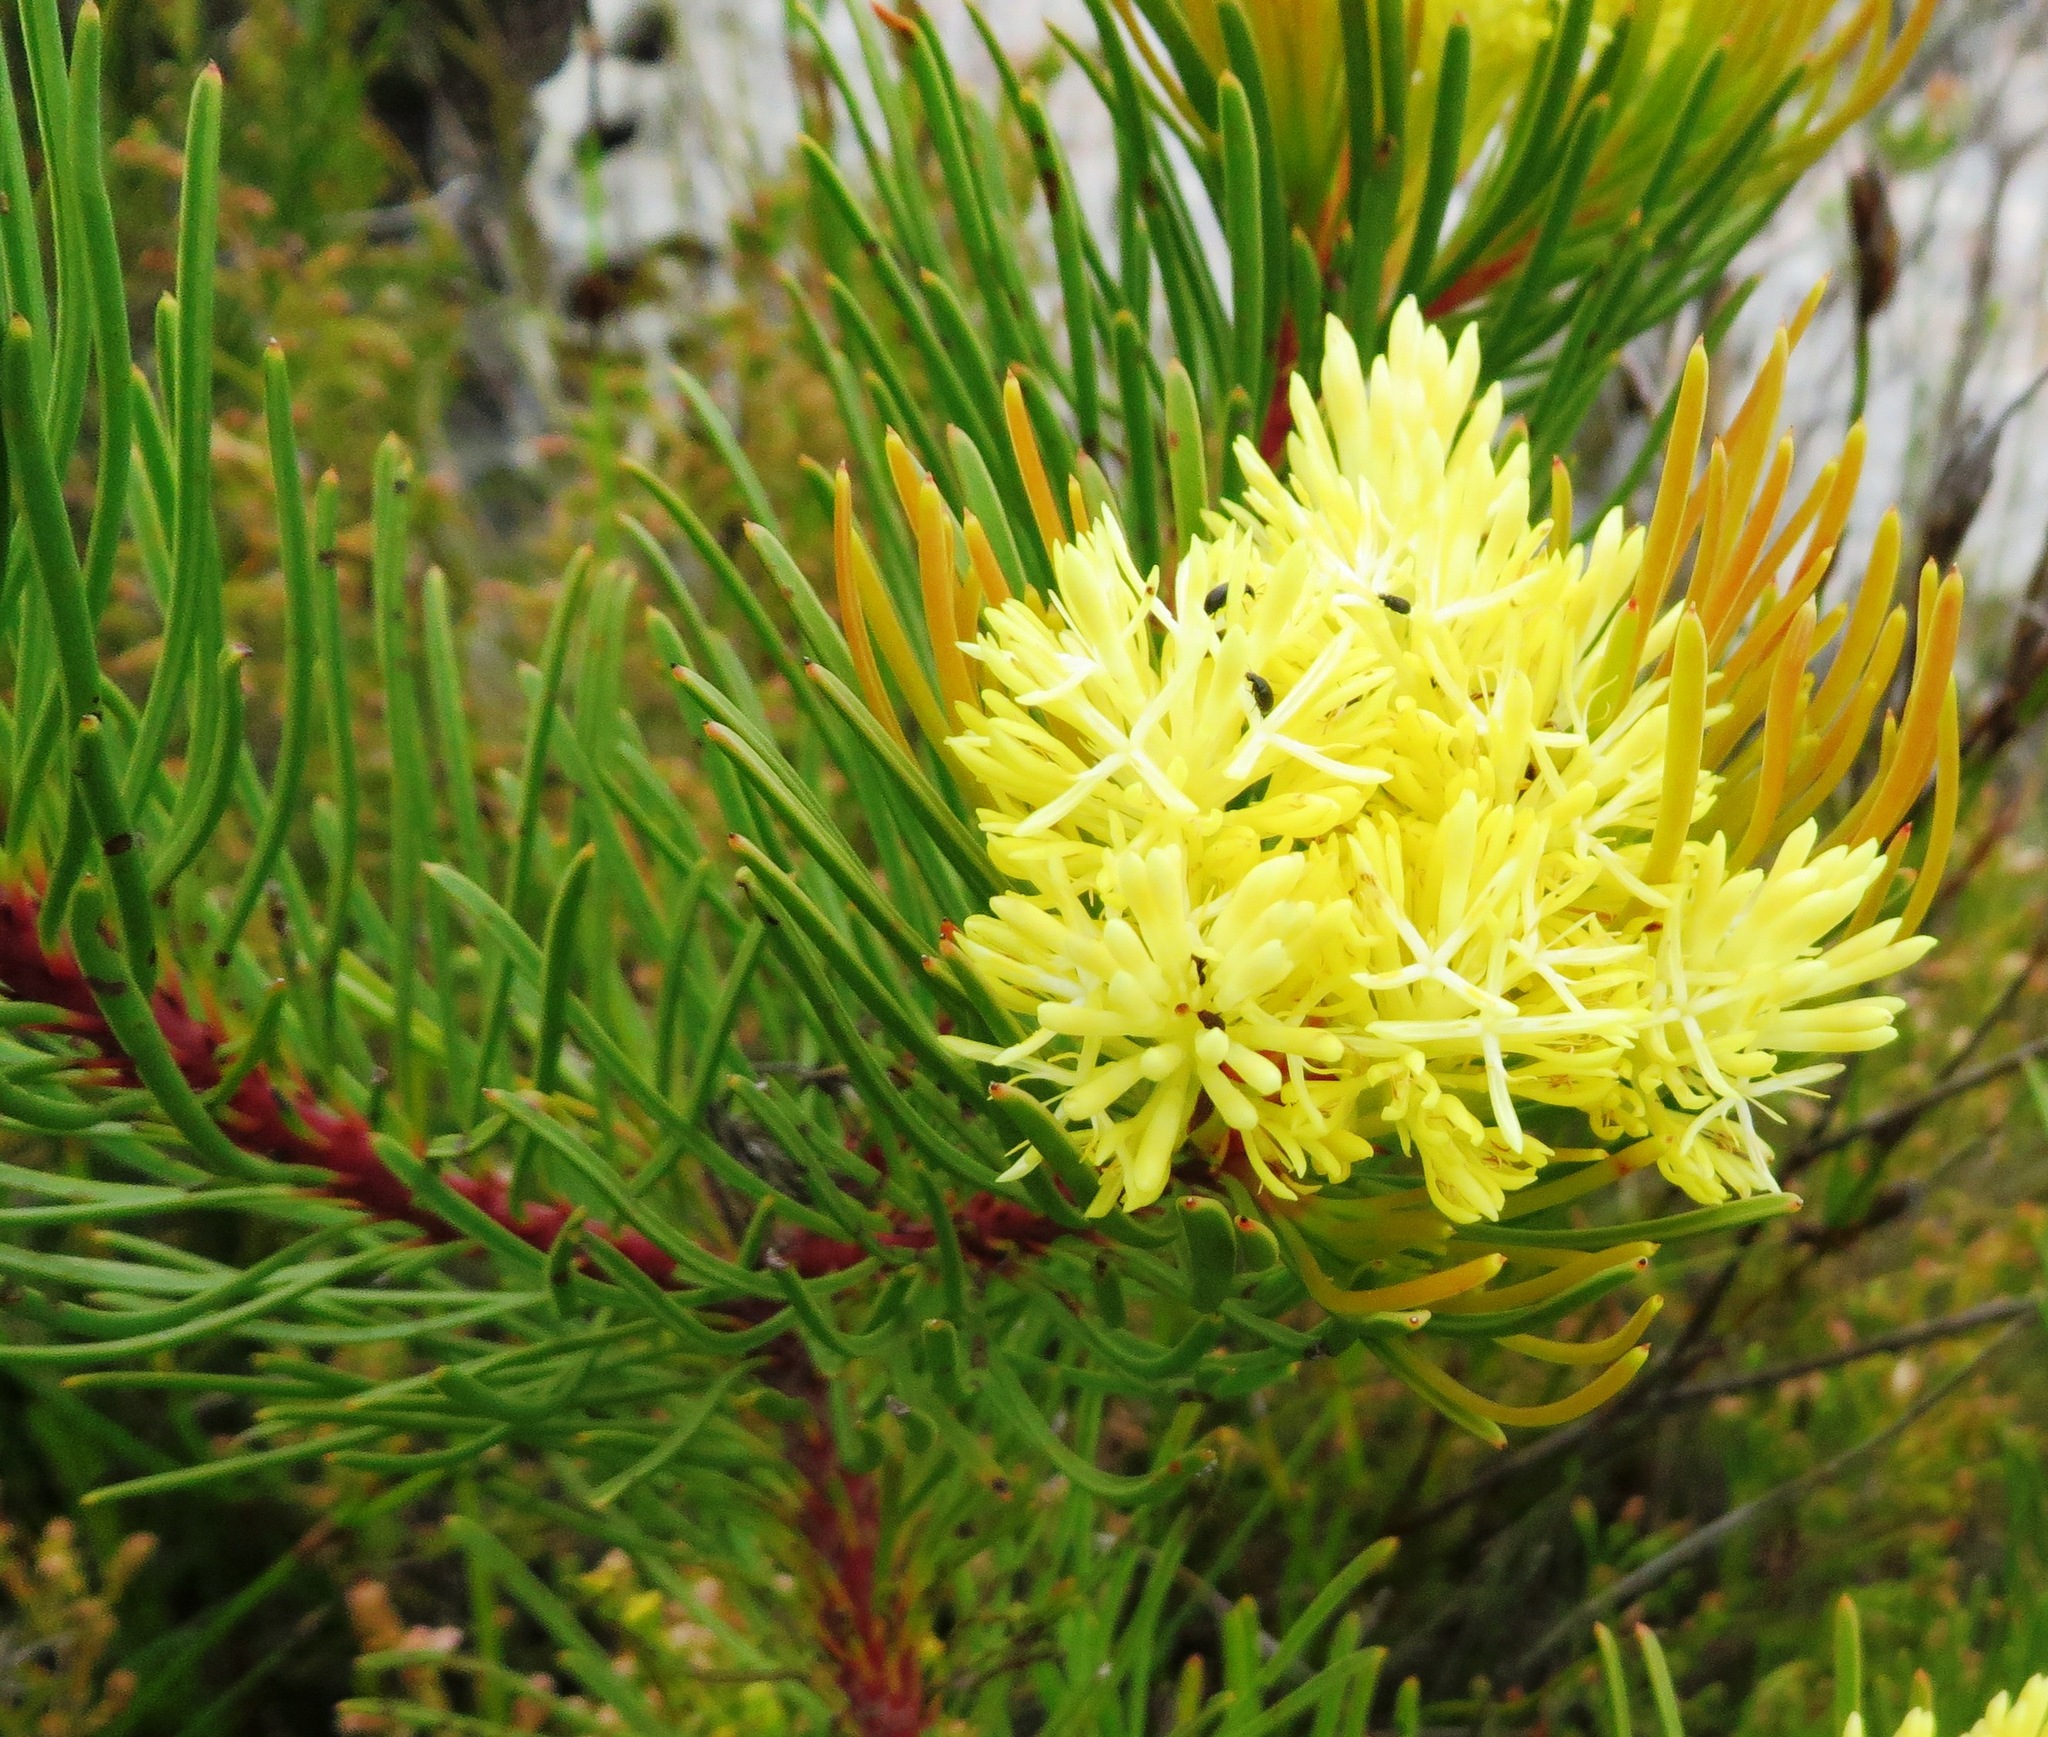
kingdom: Plantae
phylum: Tracheophyta
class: Magnoliopsida
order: Proteales
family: Proteaceae
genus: Aulax
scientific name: Aulax cancellata
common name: Channel-leaf featherbush
